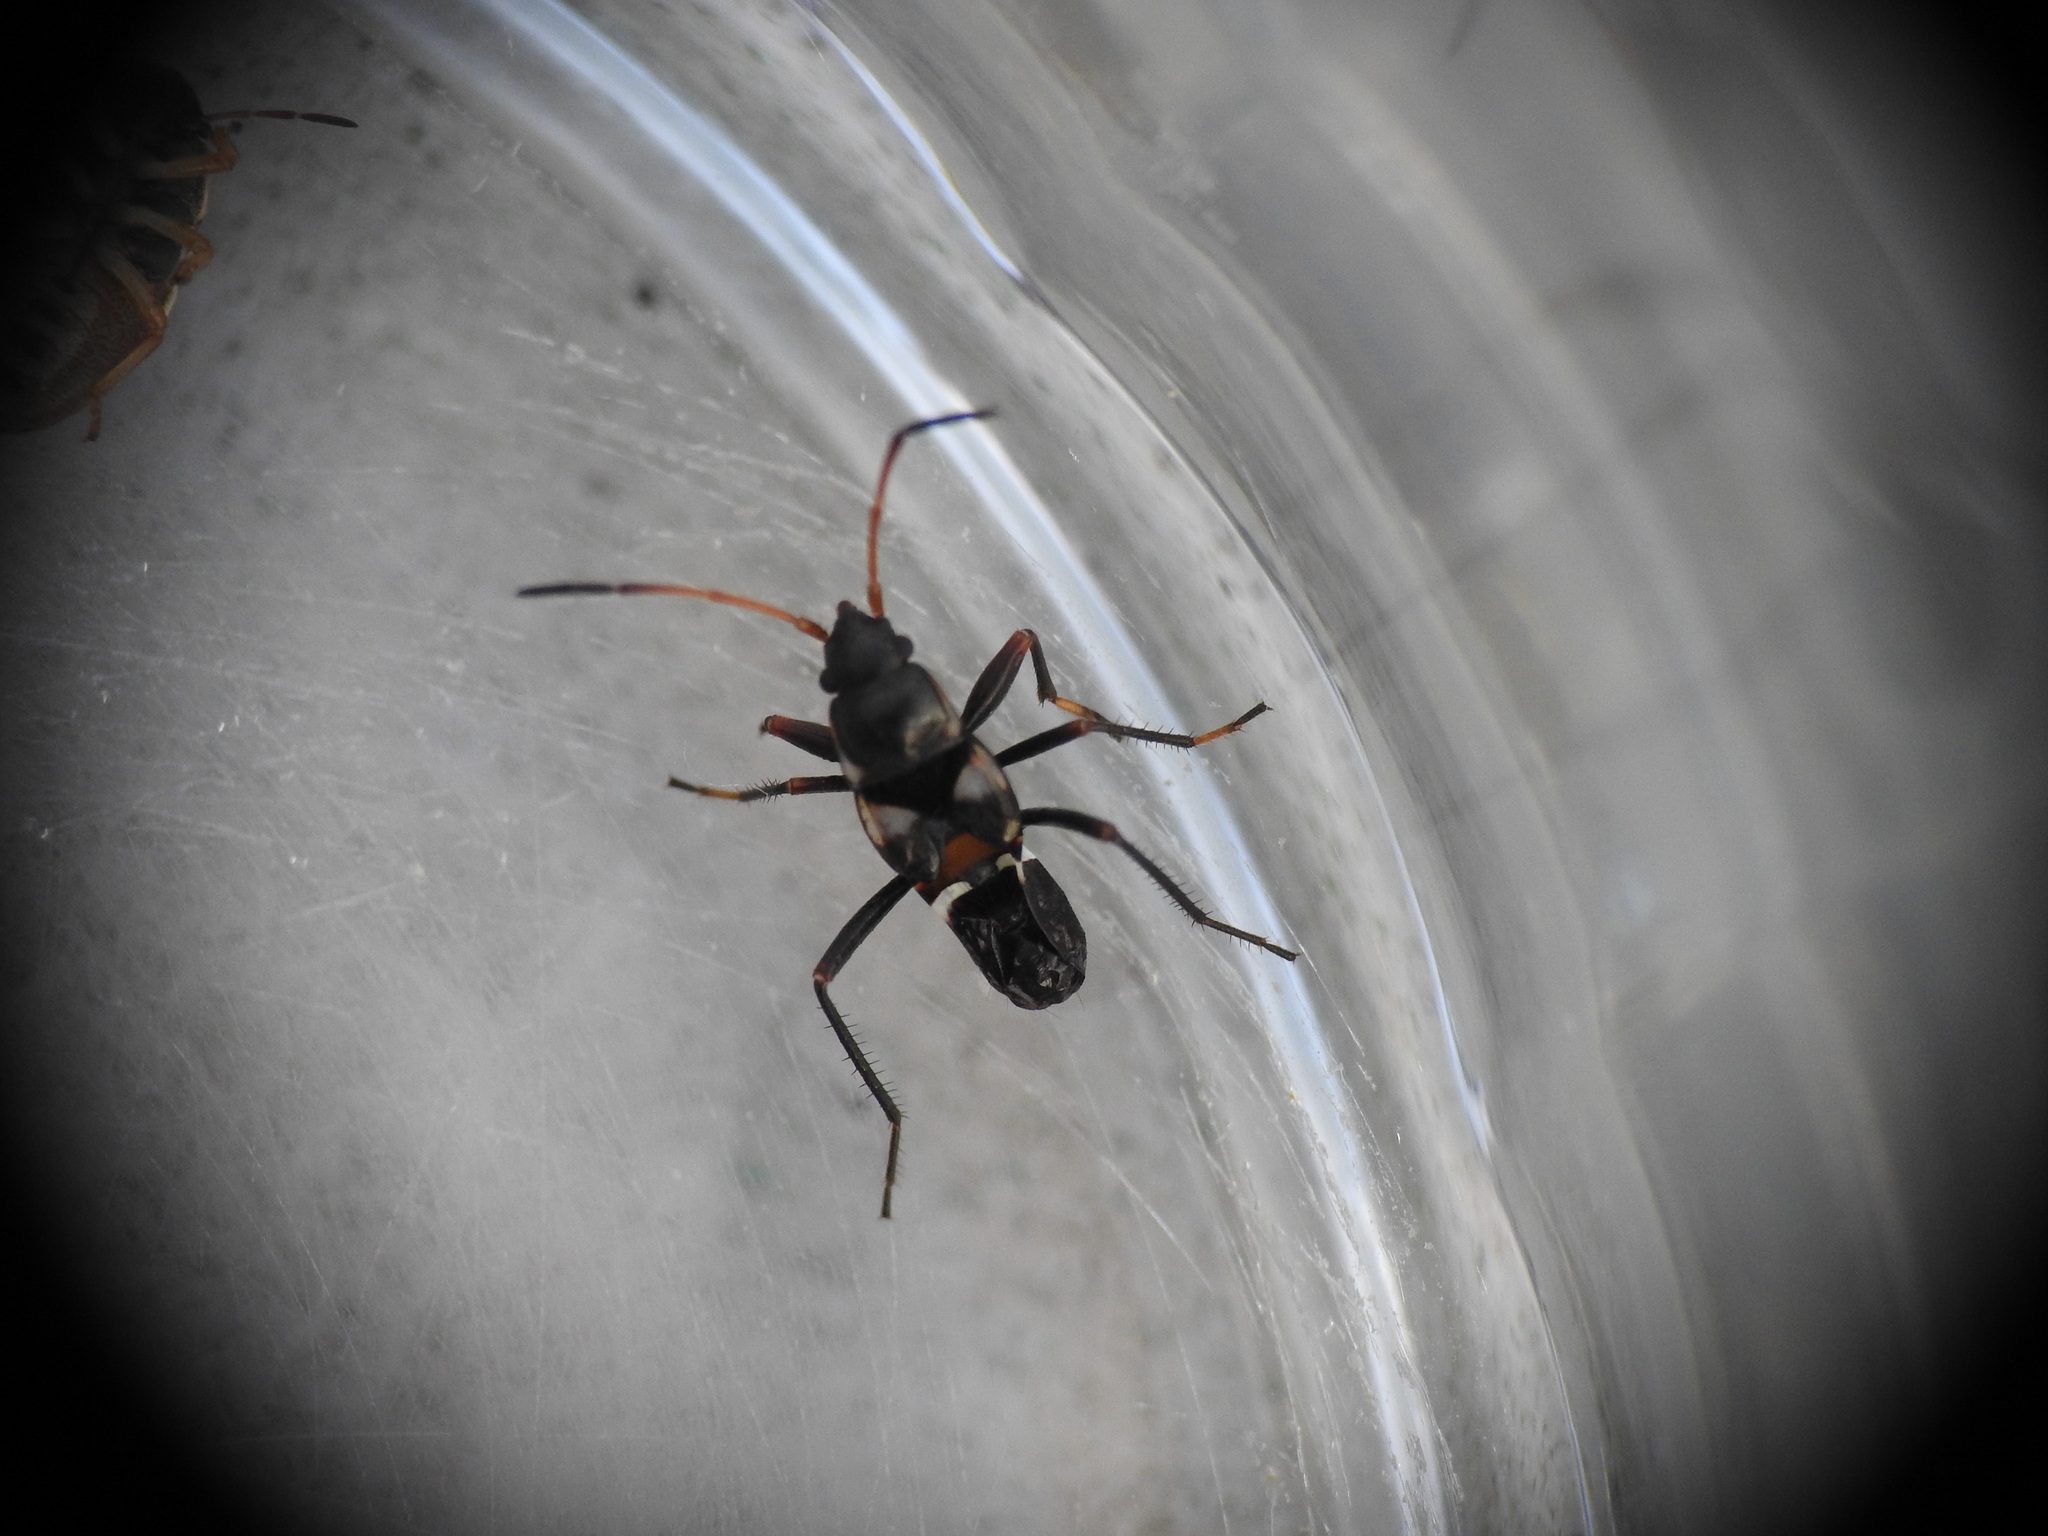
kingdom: Animalia
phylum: Arthropoda
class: Insecta
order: Hemiptera
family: Rhyparochromidae
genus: Raglius
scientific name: Raglius confusus
